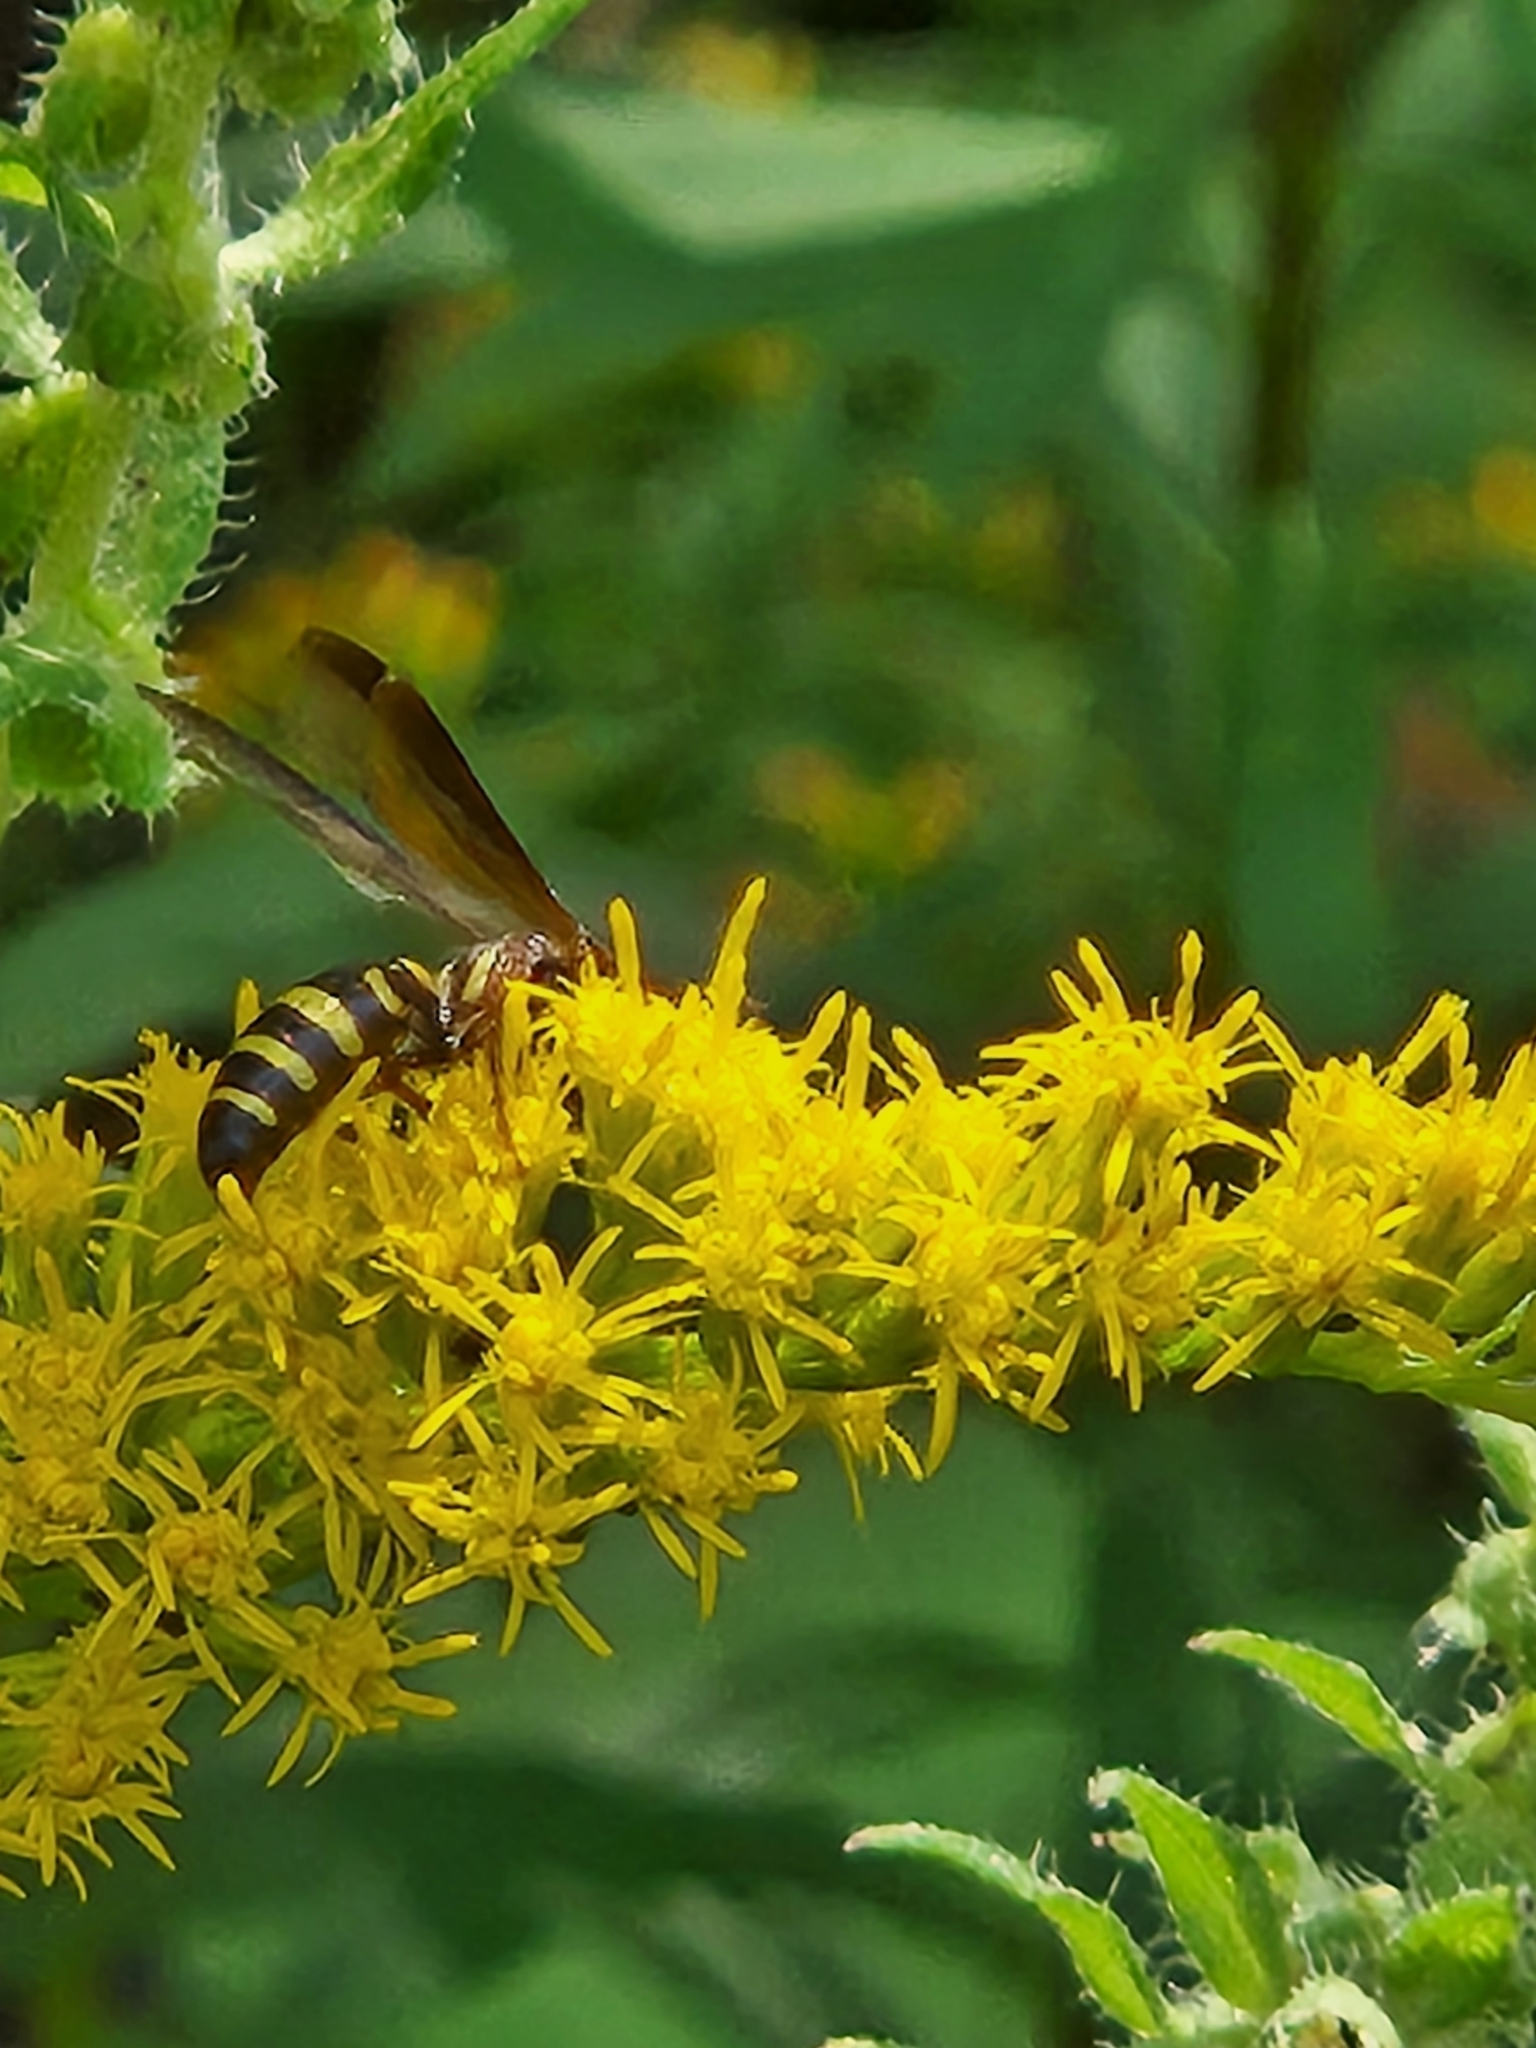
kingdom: Animalia
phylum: Arthropoda
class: Insecta
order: Hymenoptera
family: Tiphiidae
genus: Myzinum
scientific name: Myzinum maculatum
